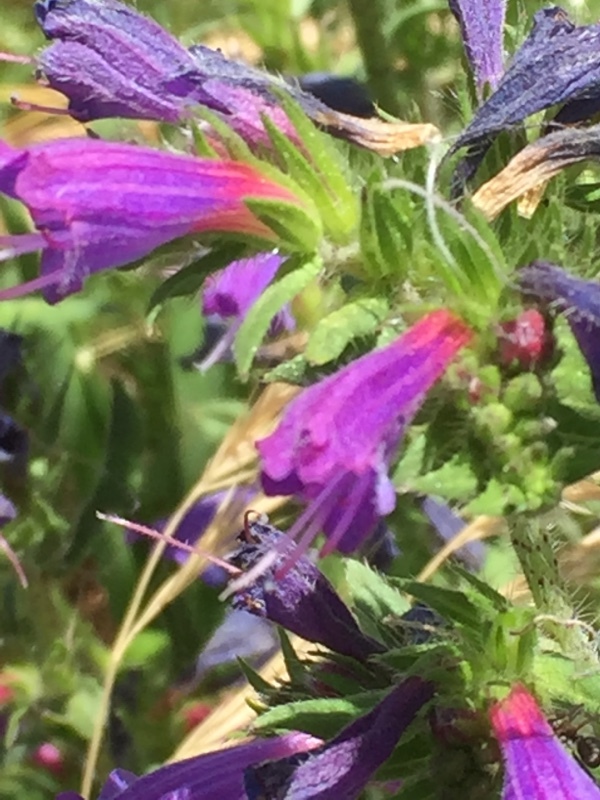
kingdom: Plantae
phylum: Tracheophyta
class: Magnoliopsida
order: Boraginales
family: Boraginaceae
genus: Echium
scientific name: Echium rosulatum
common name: Lax viper's-bugloss
